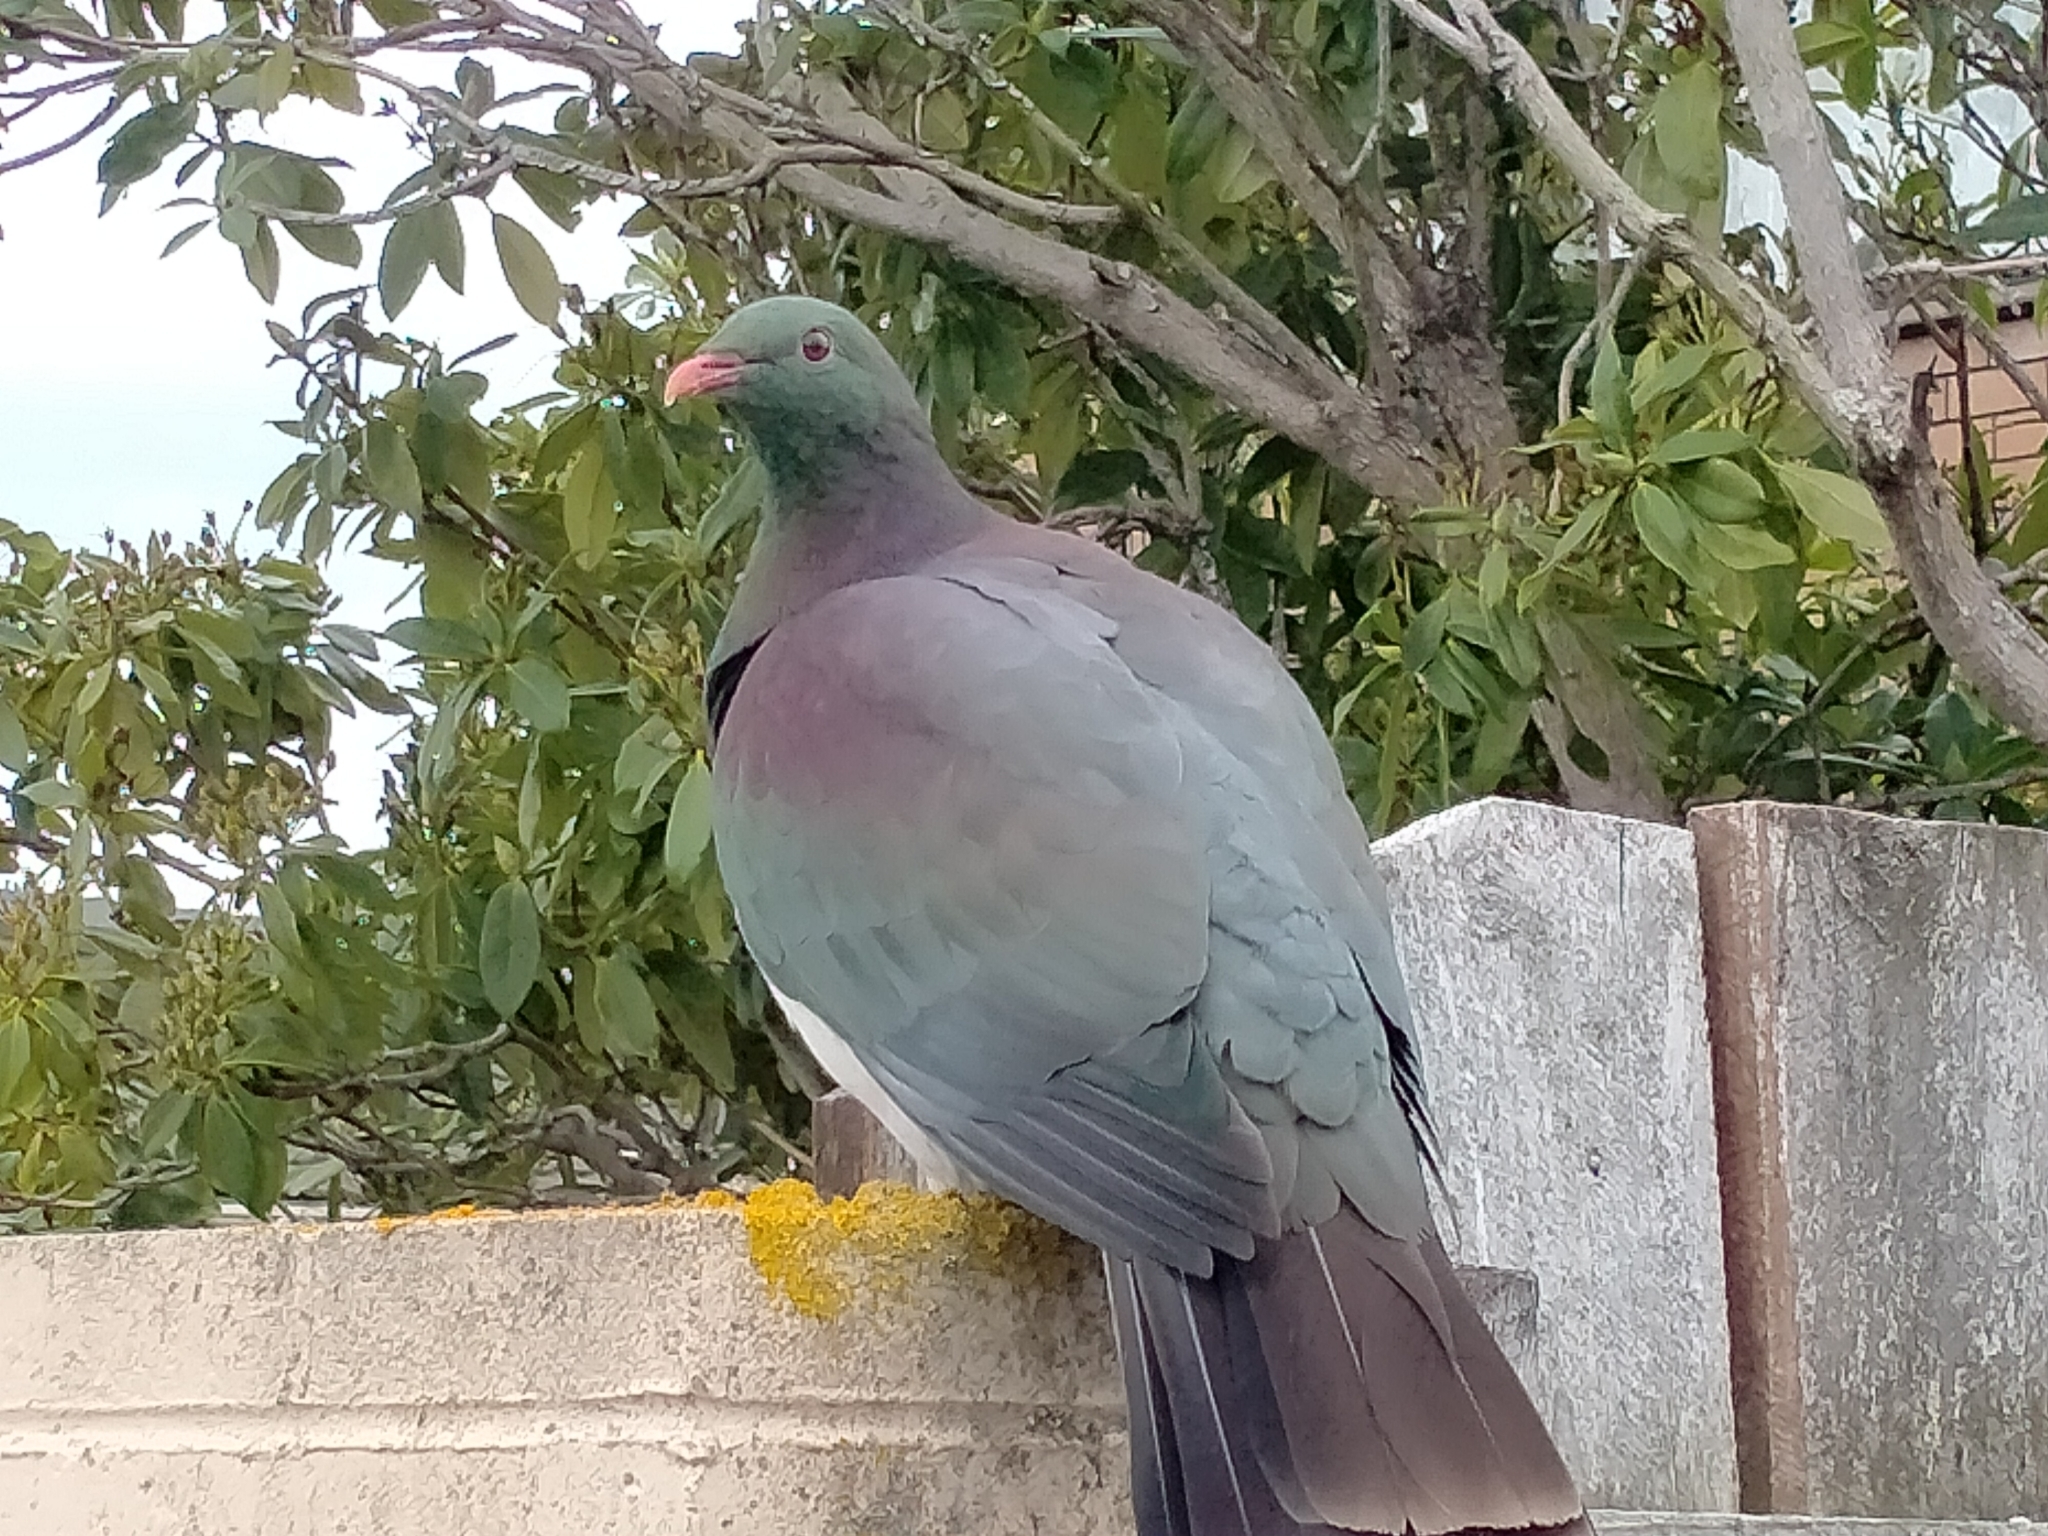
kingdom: Animalia
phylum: Chordata
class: Aves
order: Columbiformes
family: Columbidae
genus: Hemiphaga
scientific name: Hemiphaga novaeseelandiae
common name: New zealand pigeon
